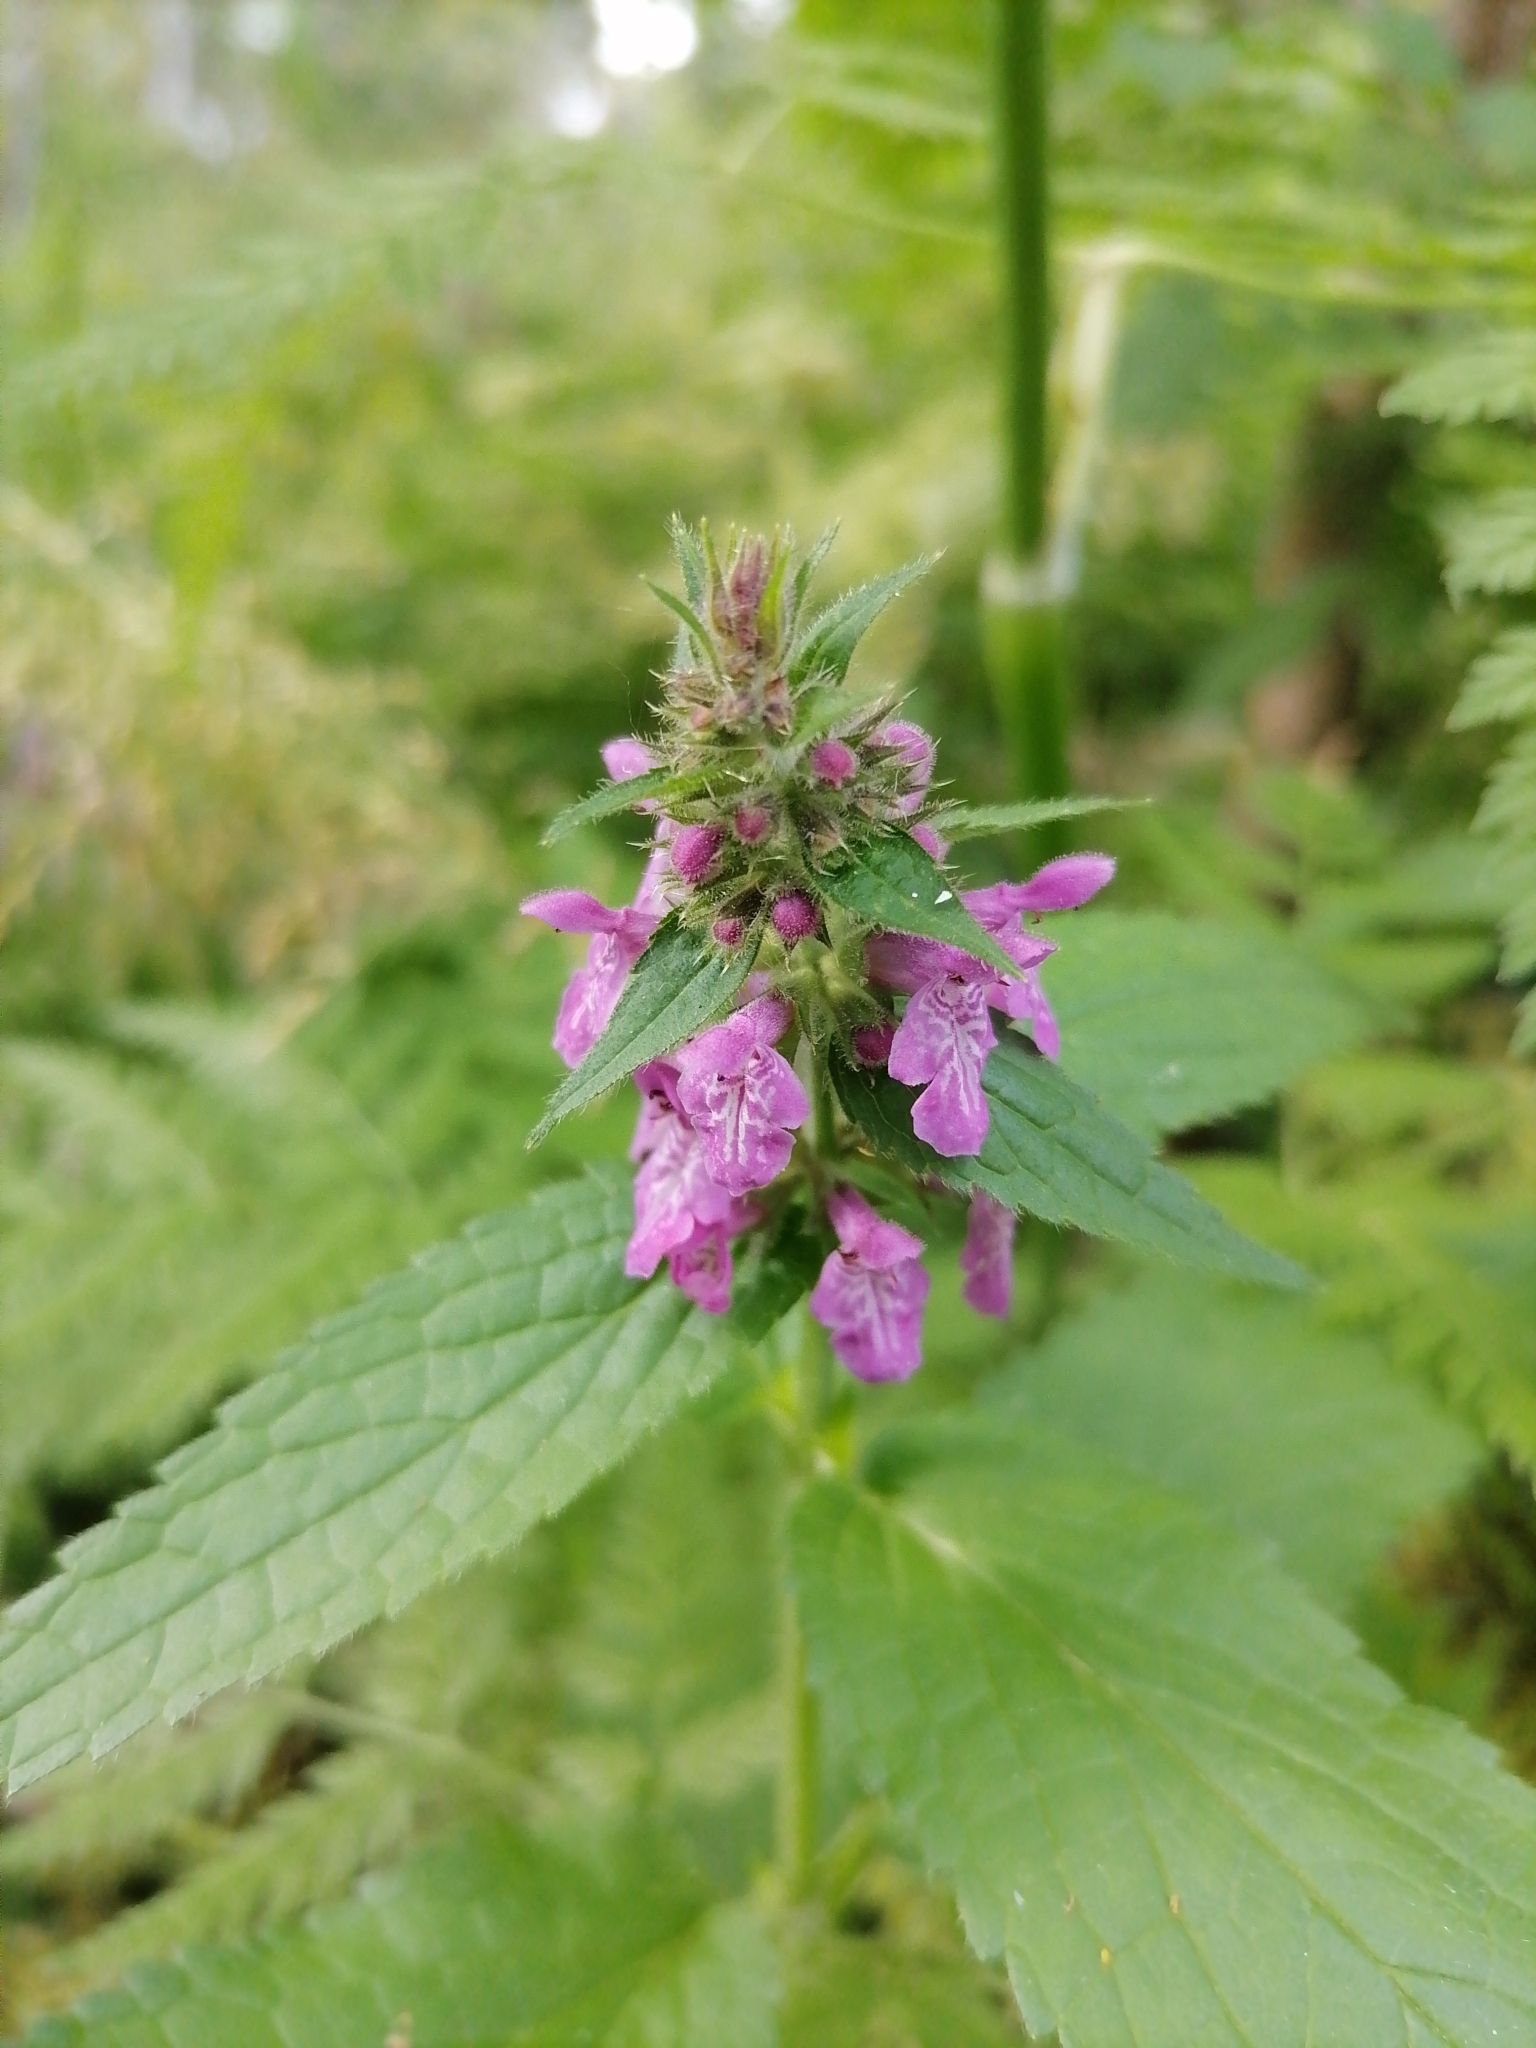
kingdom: Plantae
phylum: Tracheophyta
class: Magnoliopsida
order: Lamiales
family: Lamiaceae
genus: Stachys
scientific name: Stachys palustris
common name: Marsh woundwort
